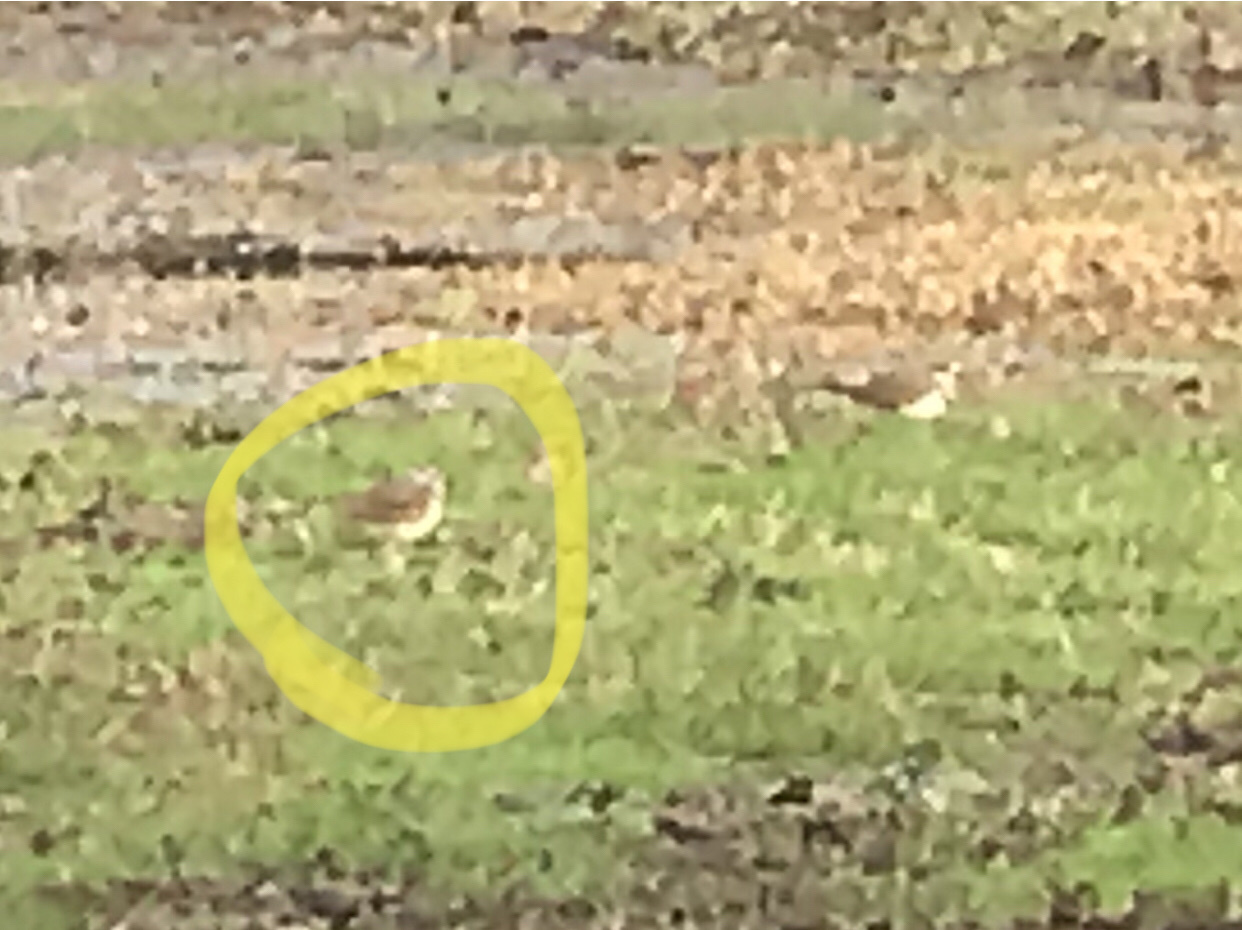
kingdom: Animalia
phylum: Chordata
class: Aves
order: Charadriiformes
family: Charadriidae
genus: Charadrius
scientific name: Charadrius vociferus
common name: Killdeer
